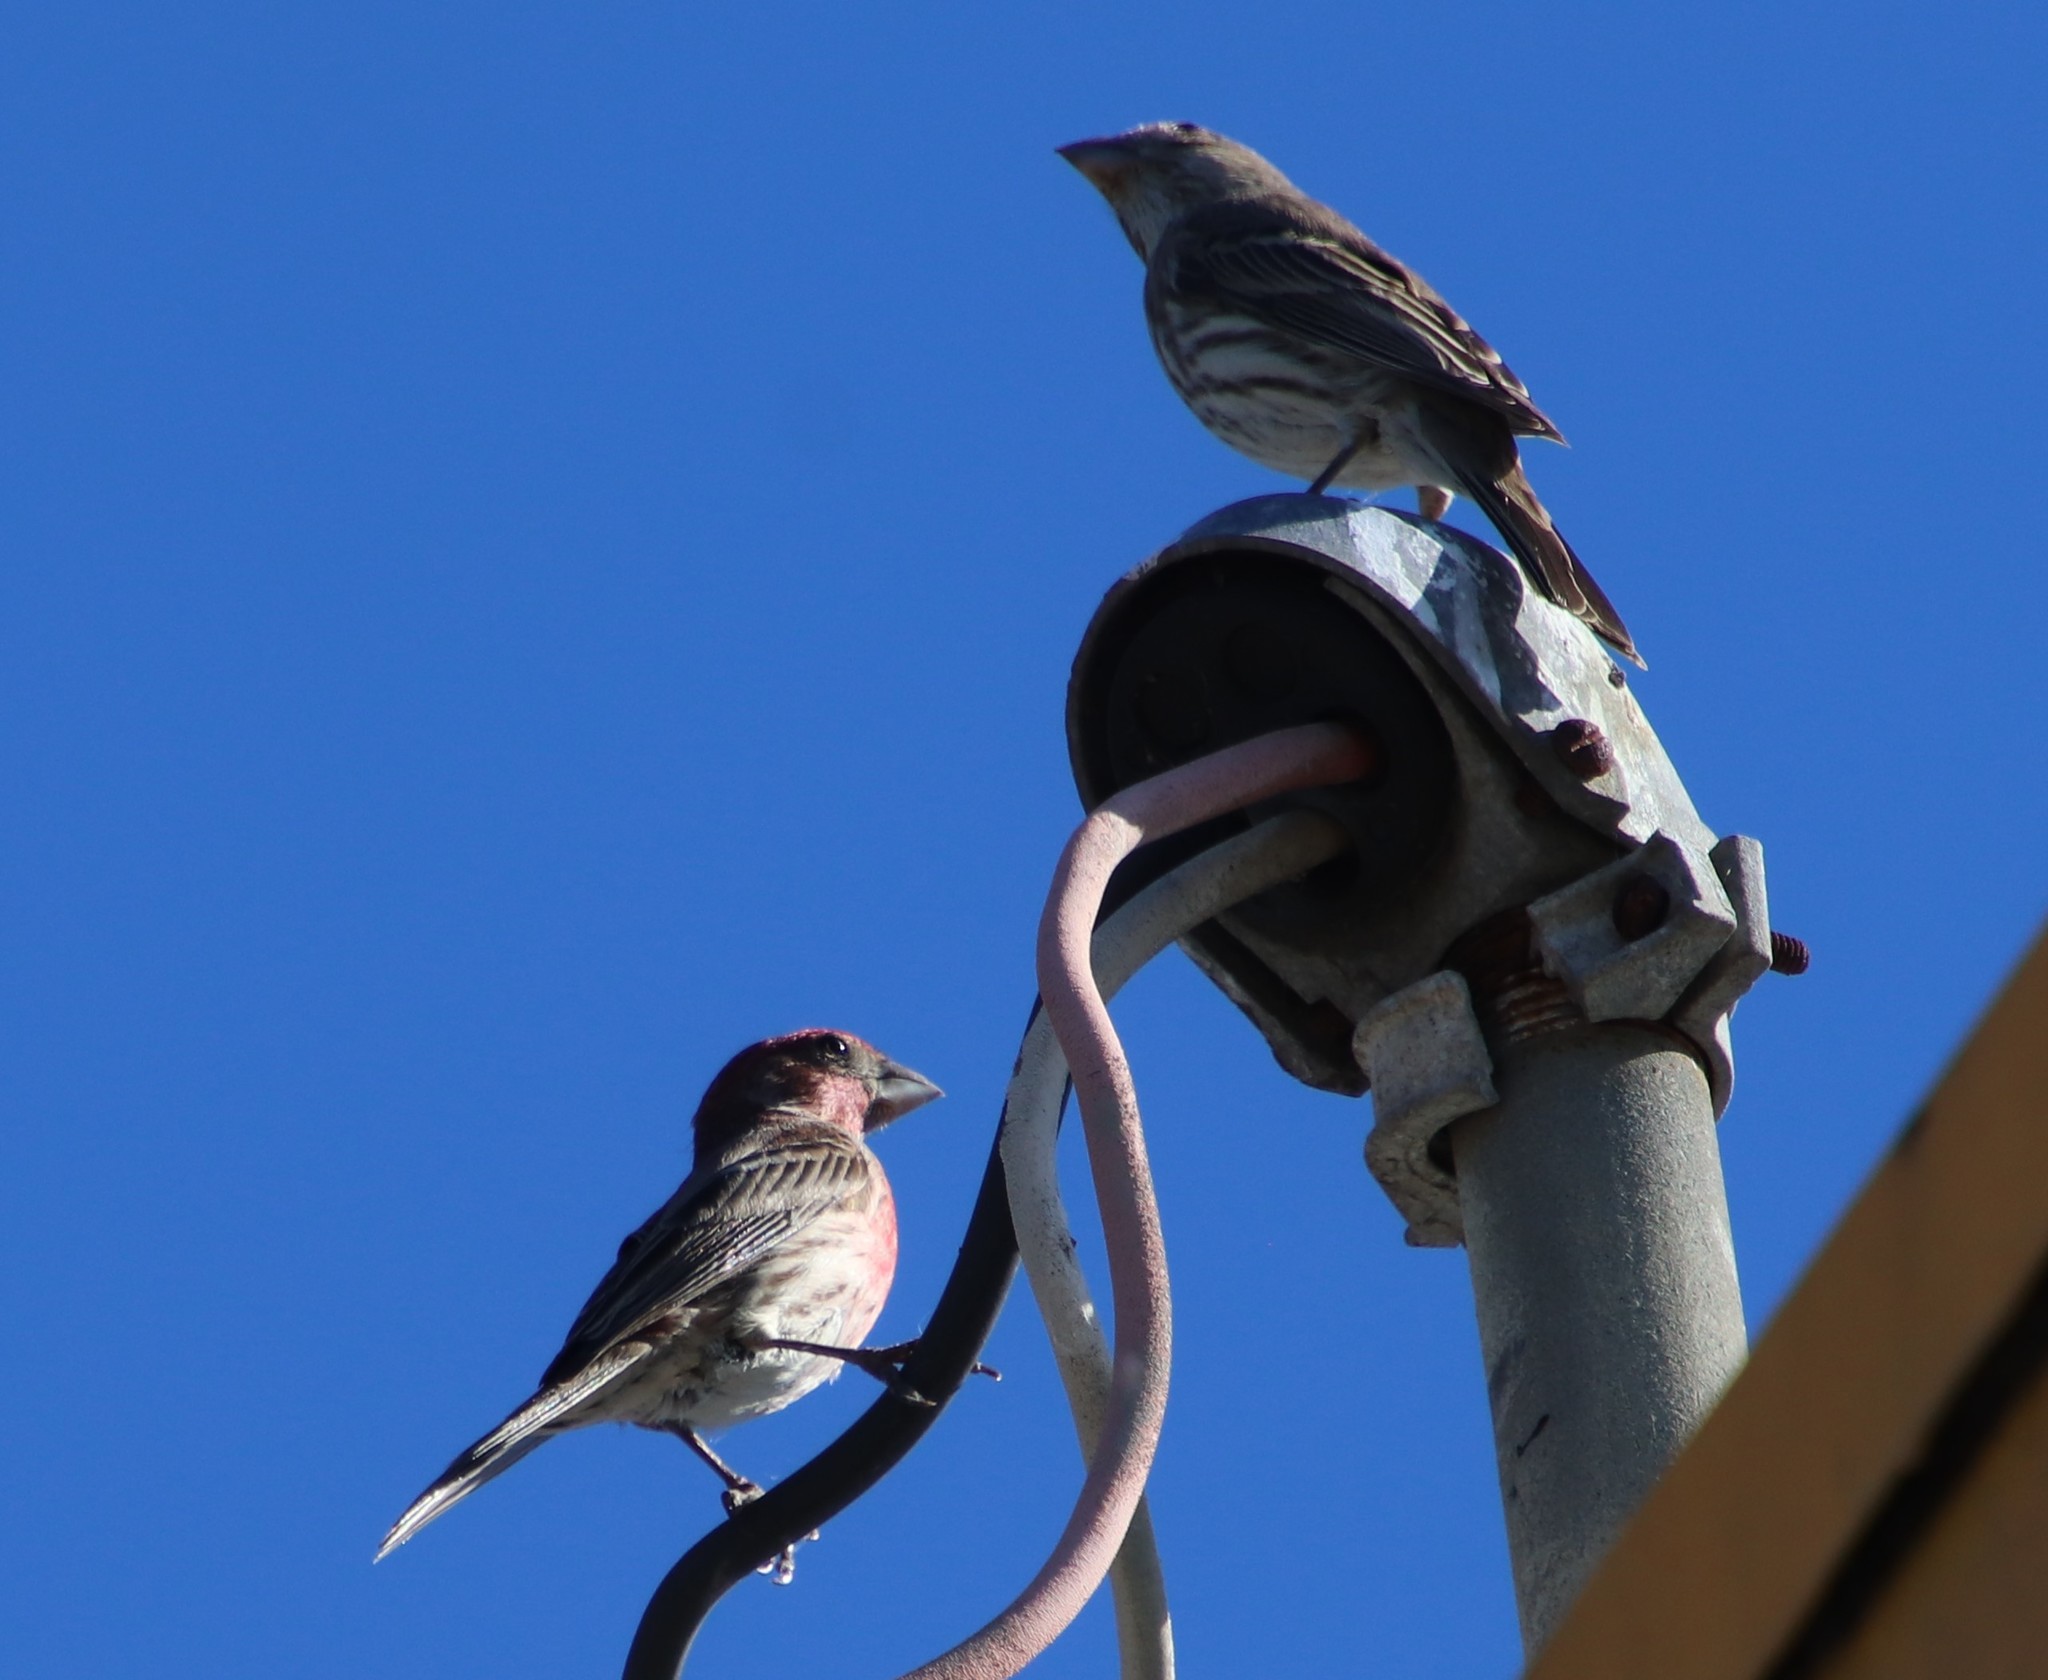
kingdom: Animalia
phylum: Chordata
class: Aves
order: Passeriformes
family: Fringillidae
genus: Haemorhous
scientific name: Haemorhous mexicanus
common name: House finch
